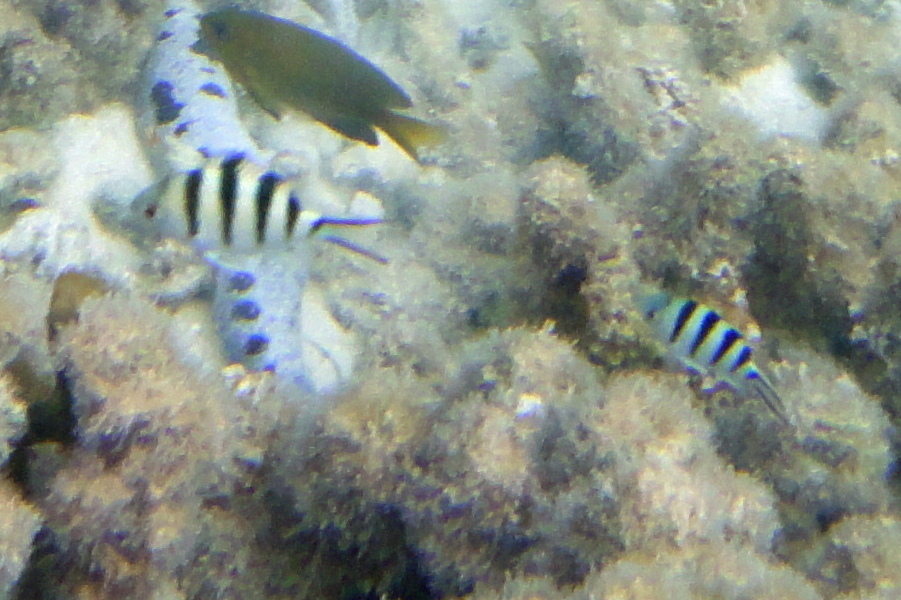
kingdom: Animalia
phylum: Chordata
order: Perciformes
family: Pomacentridae
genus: Abudefduf
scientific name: Abudefduf sexfasciatus
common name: Scissortail sergeant
